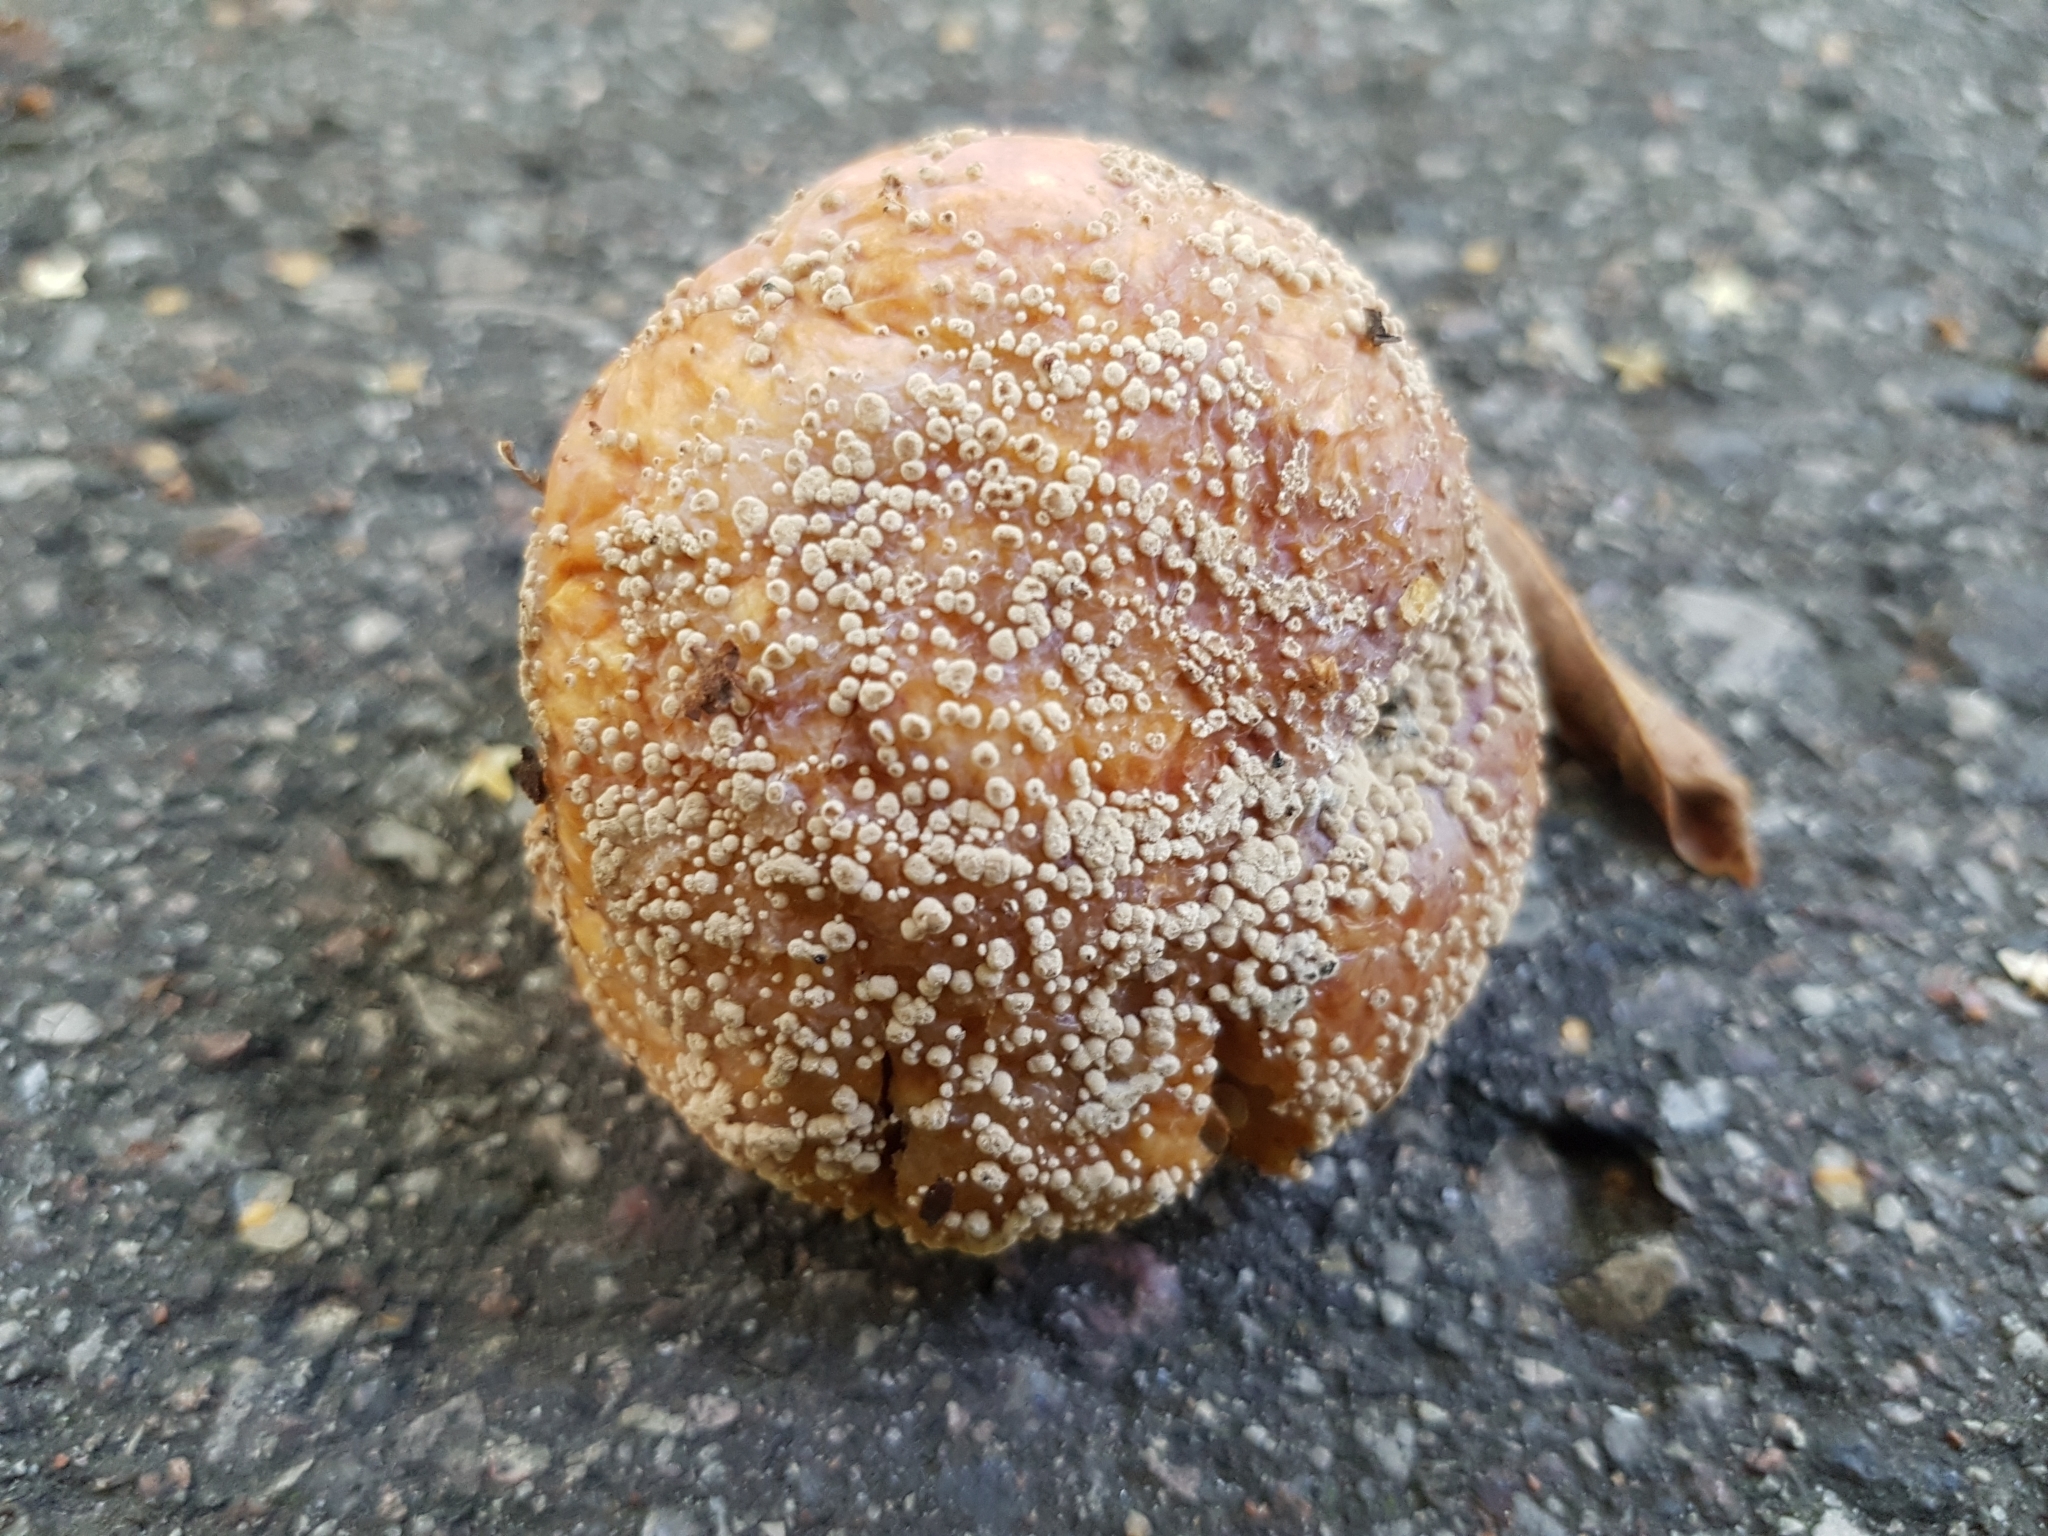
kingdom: Fungi
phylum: Ascomycota
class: Leotiomycetes
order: Helotiales
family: Sclerotiniaceae
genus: Monilinia
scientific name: Monilinia fructicola
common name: Brown fruit rot
